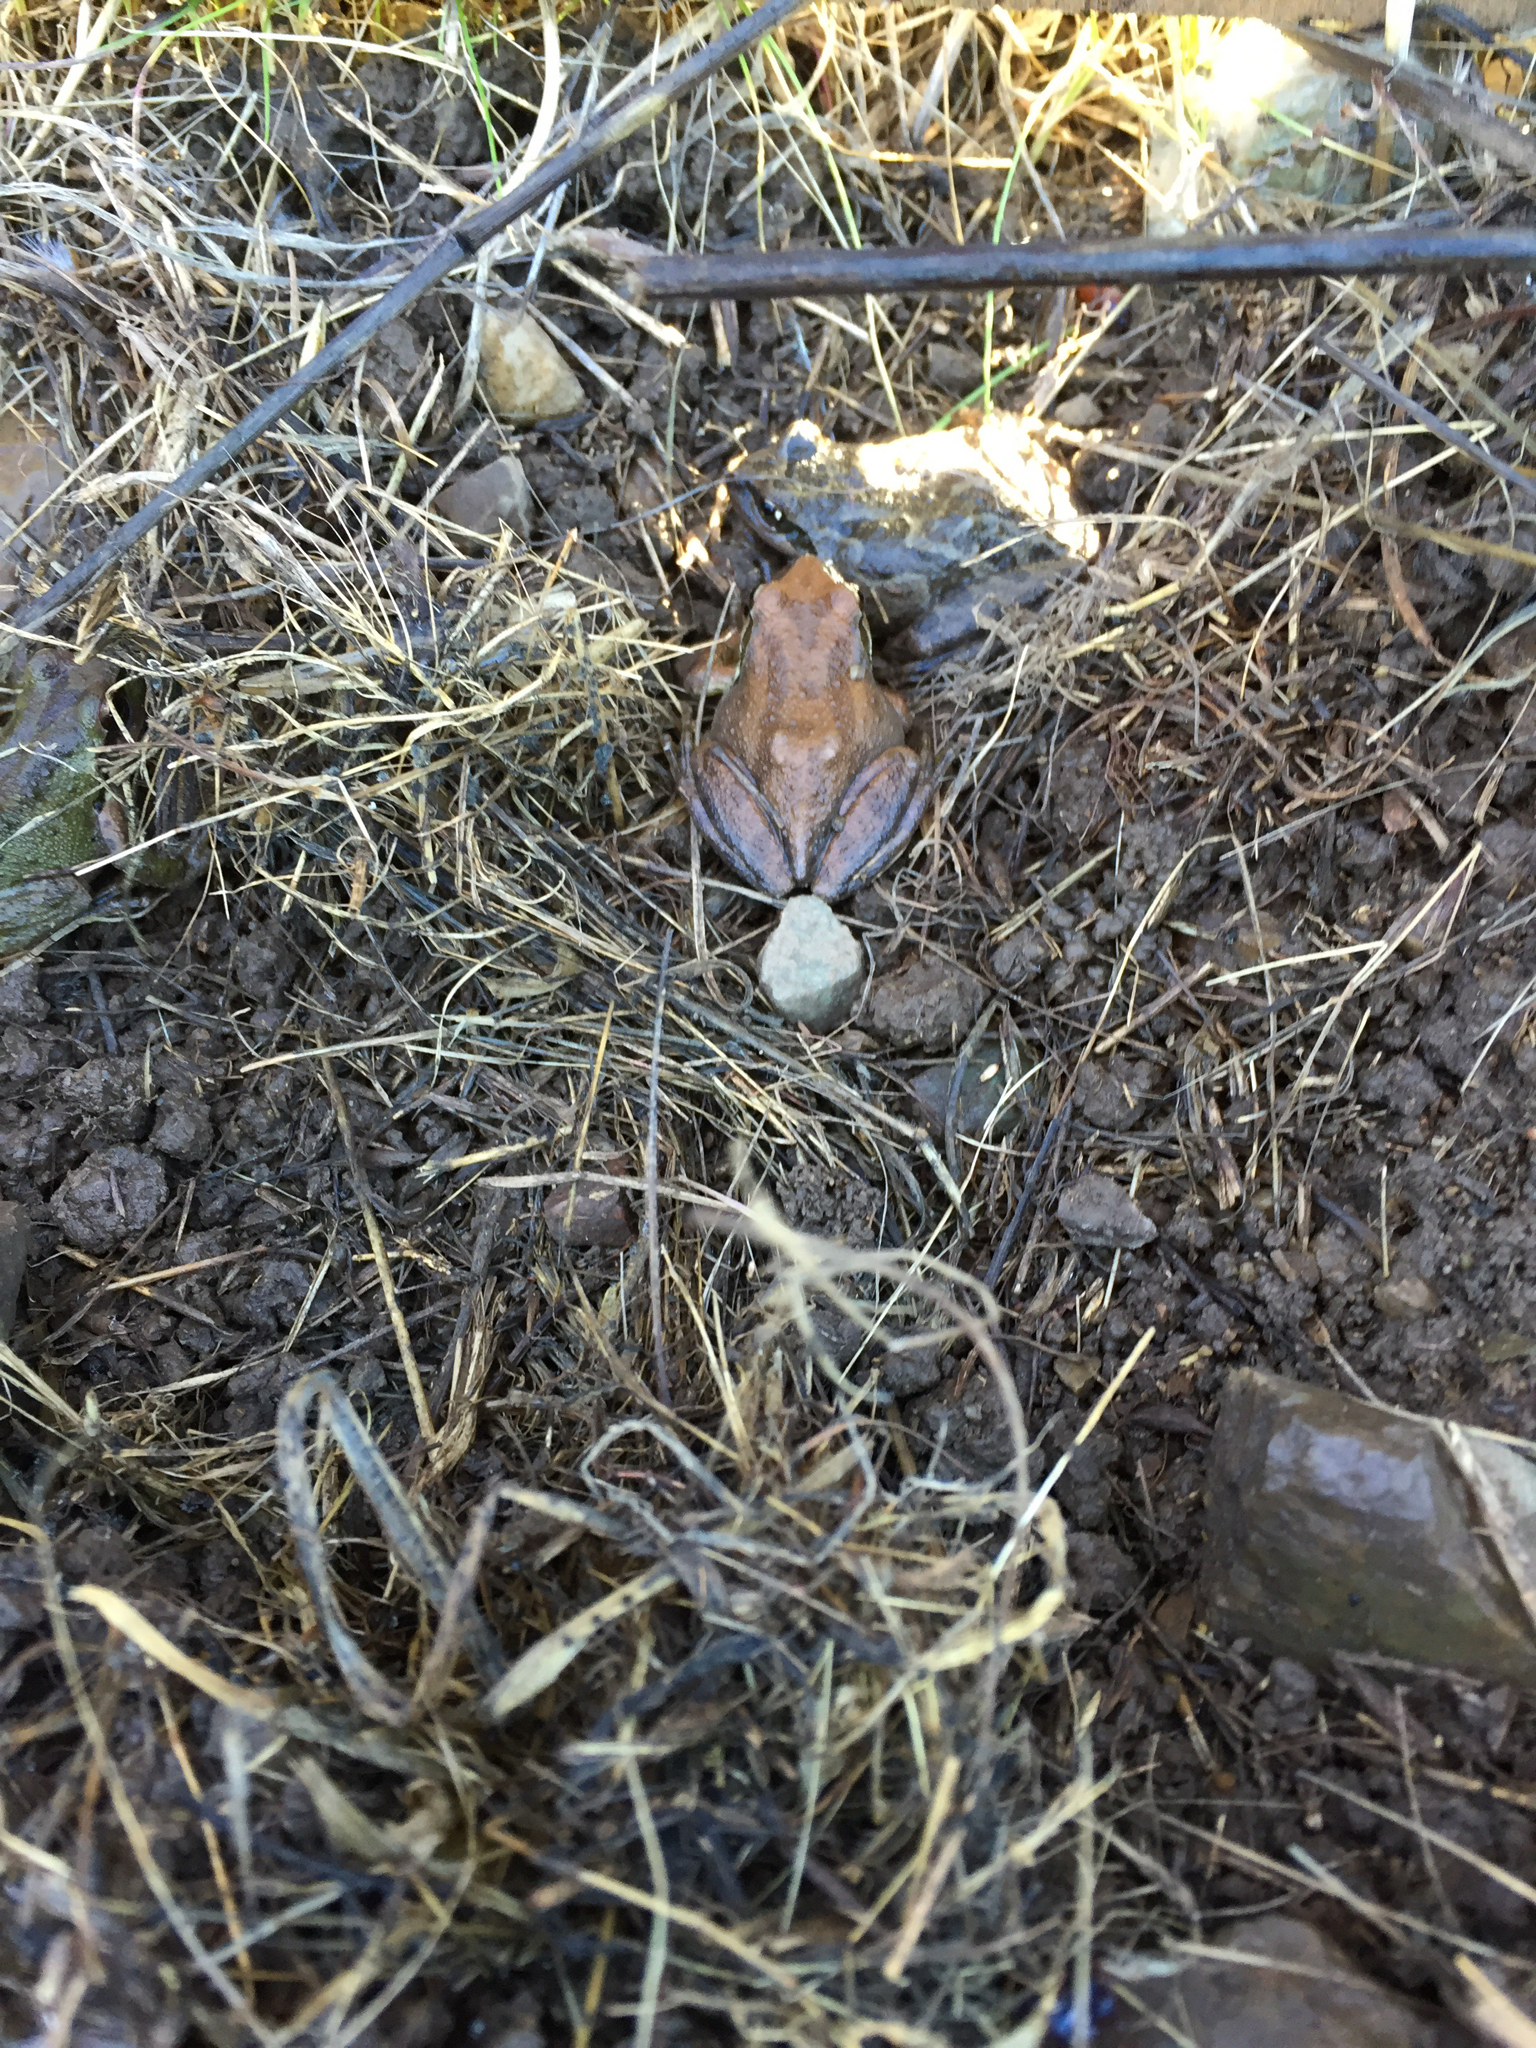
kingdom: Animalia
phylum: Chordata
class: Amphibia
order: Anura
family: Hylidae
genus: Pseudacris
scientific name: Pseudacris regilla
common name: Pacific chorus frog
